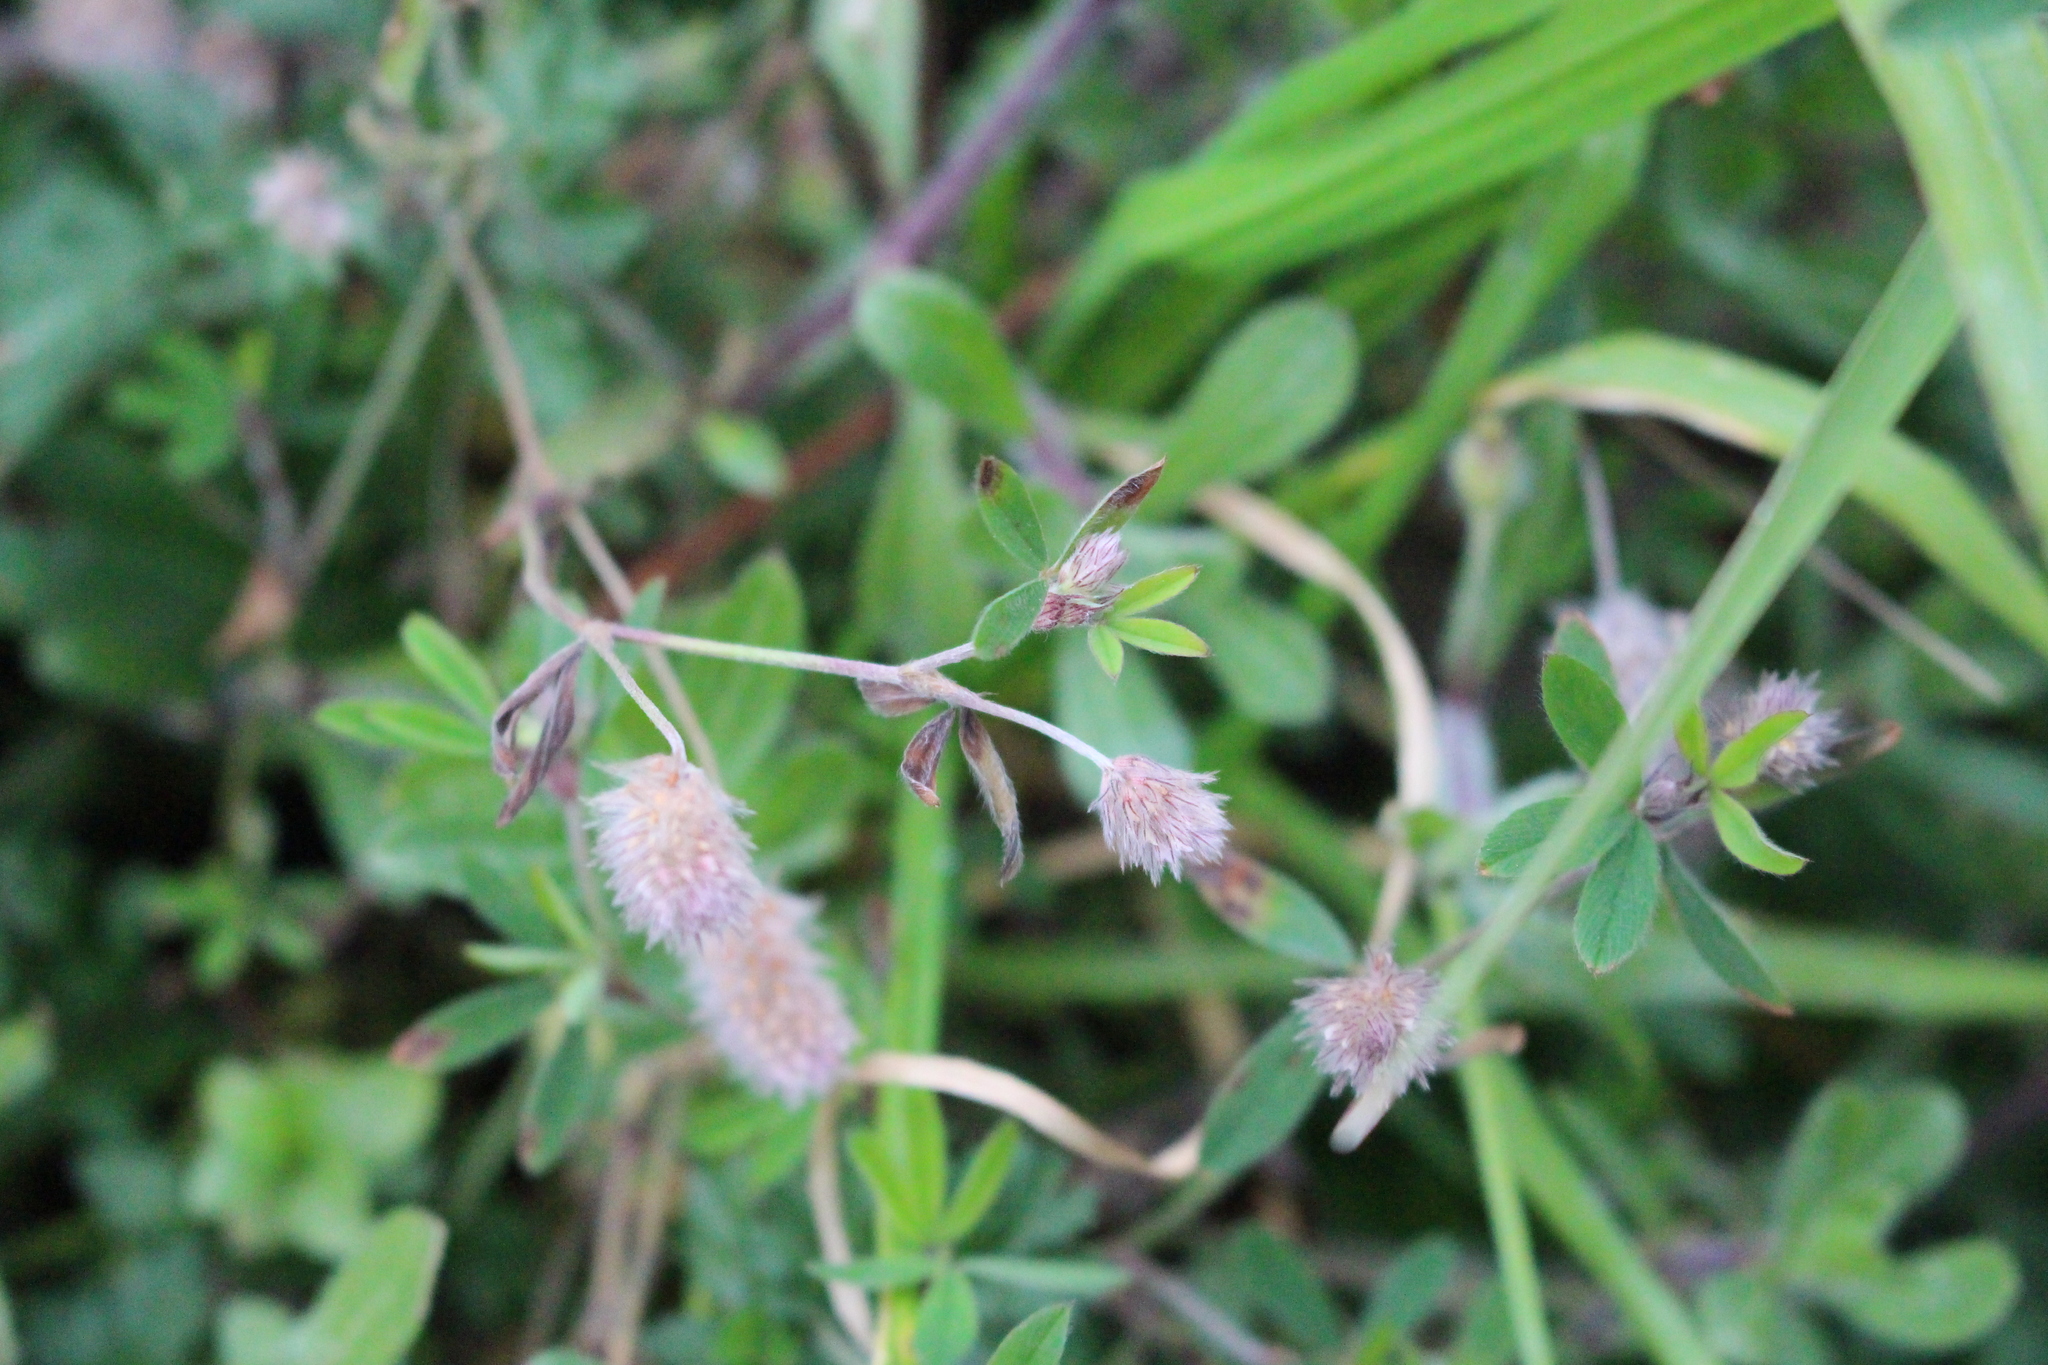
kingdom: Plantae
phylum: Tracheophyta
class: Magnoliopsida
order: Fabales
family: Fabaceae
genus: Trifolium
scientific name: Trifolium arvense
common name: Hare's-foot clover
